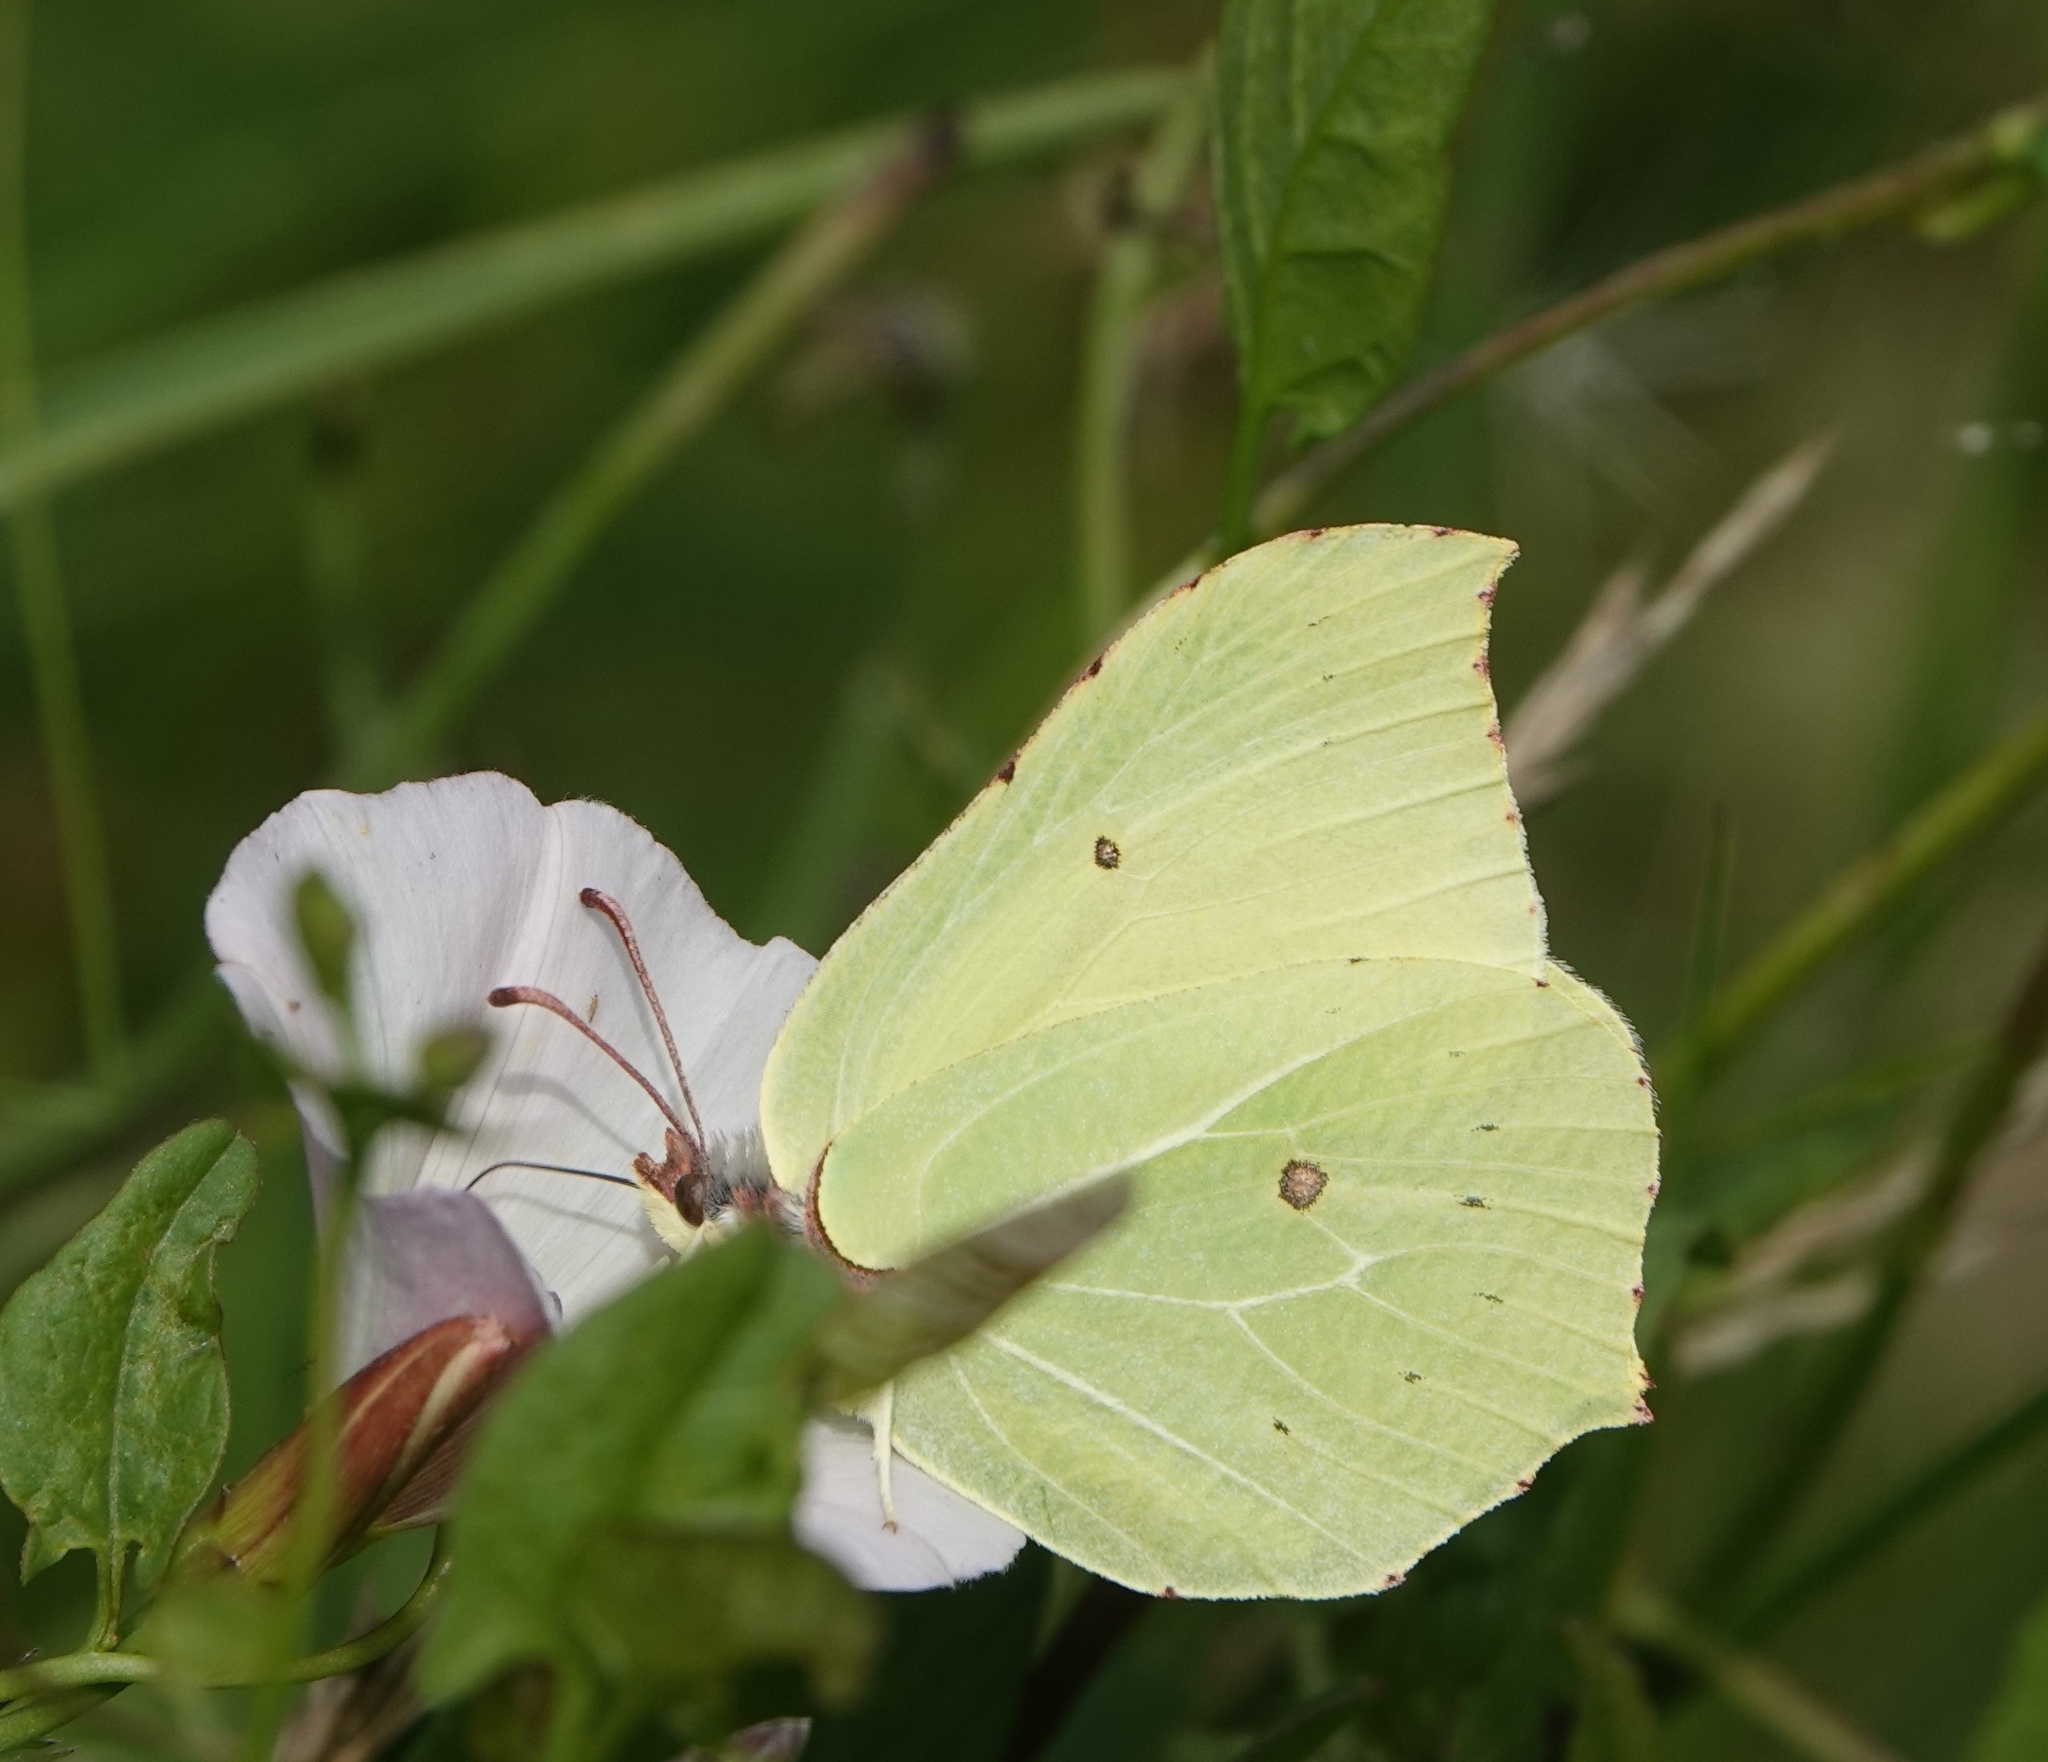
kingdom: Animalia
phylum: Arthropoda
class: Insecta
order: Lepidoptera
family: Pieridae
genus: Gonepteryx
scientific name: Gonepteryx rhamni
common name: Brimstone
